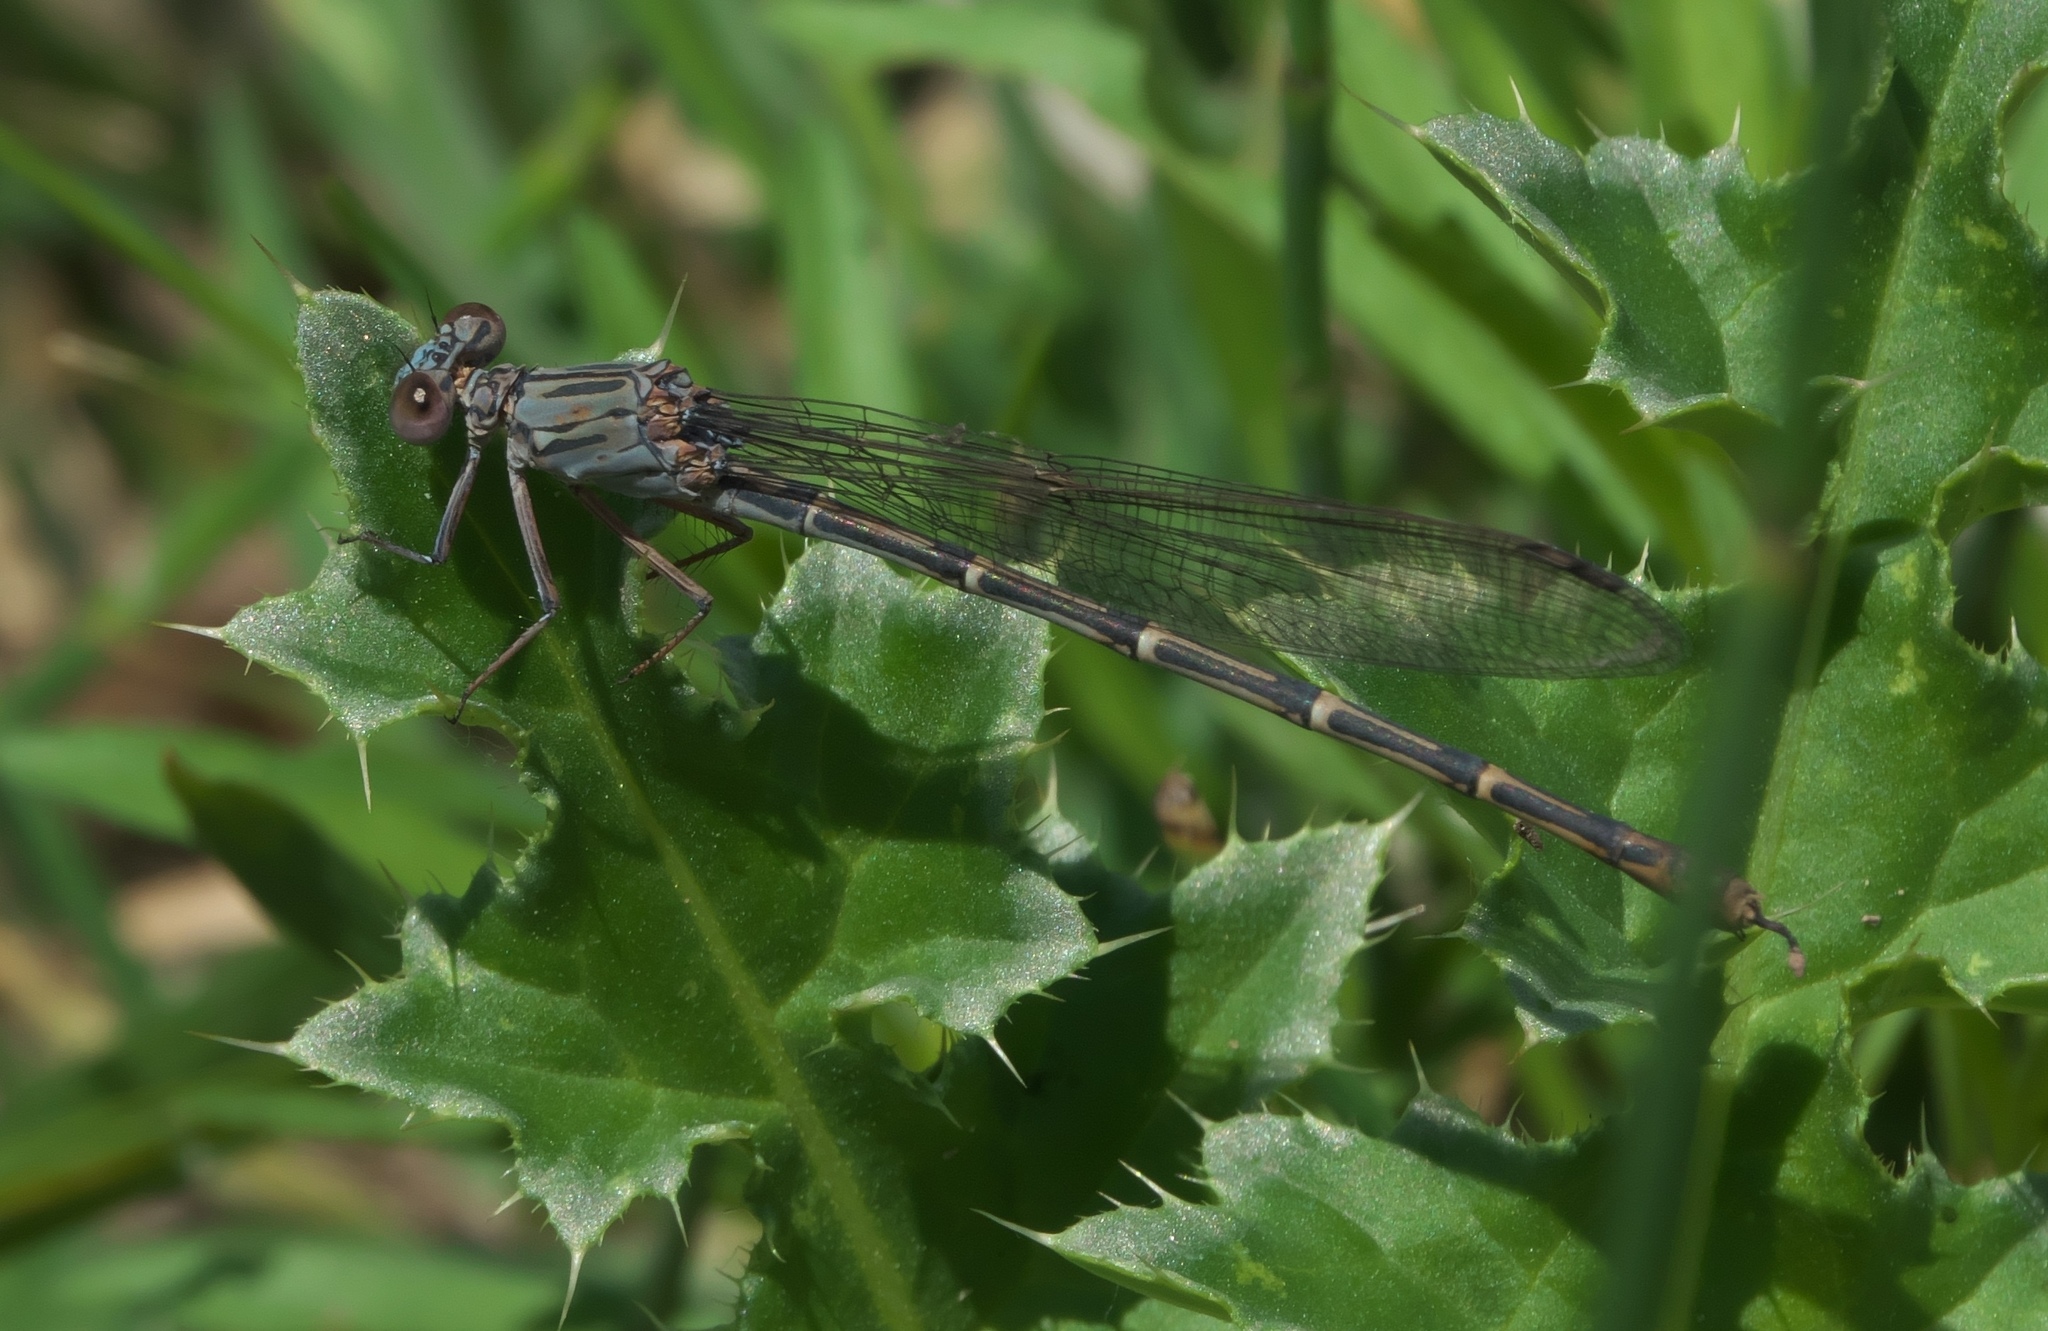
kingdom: Animalia
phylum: Arthropoda
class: Insecta
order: Odonata
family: Coenagrionidae
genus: Argia
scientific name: Argia lugens
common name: Sooty dancer
